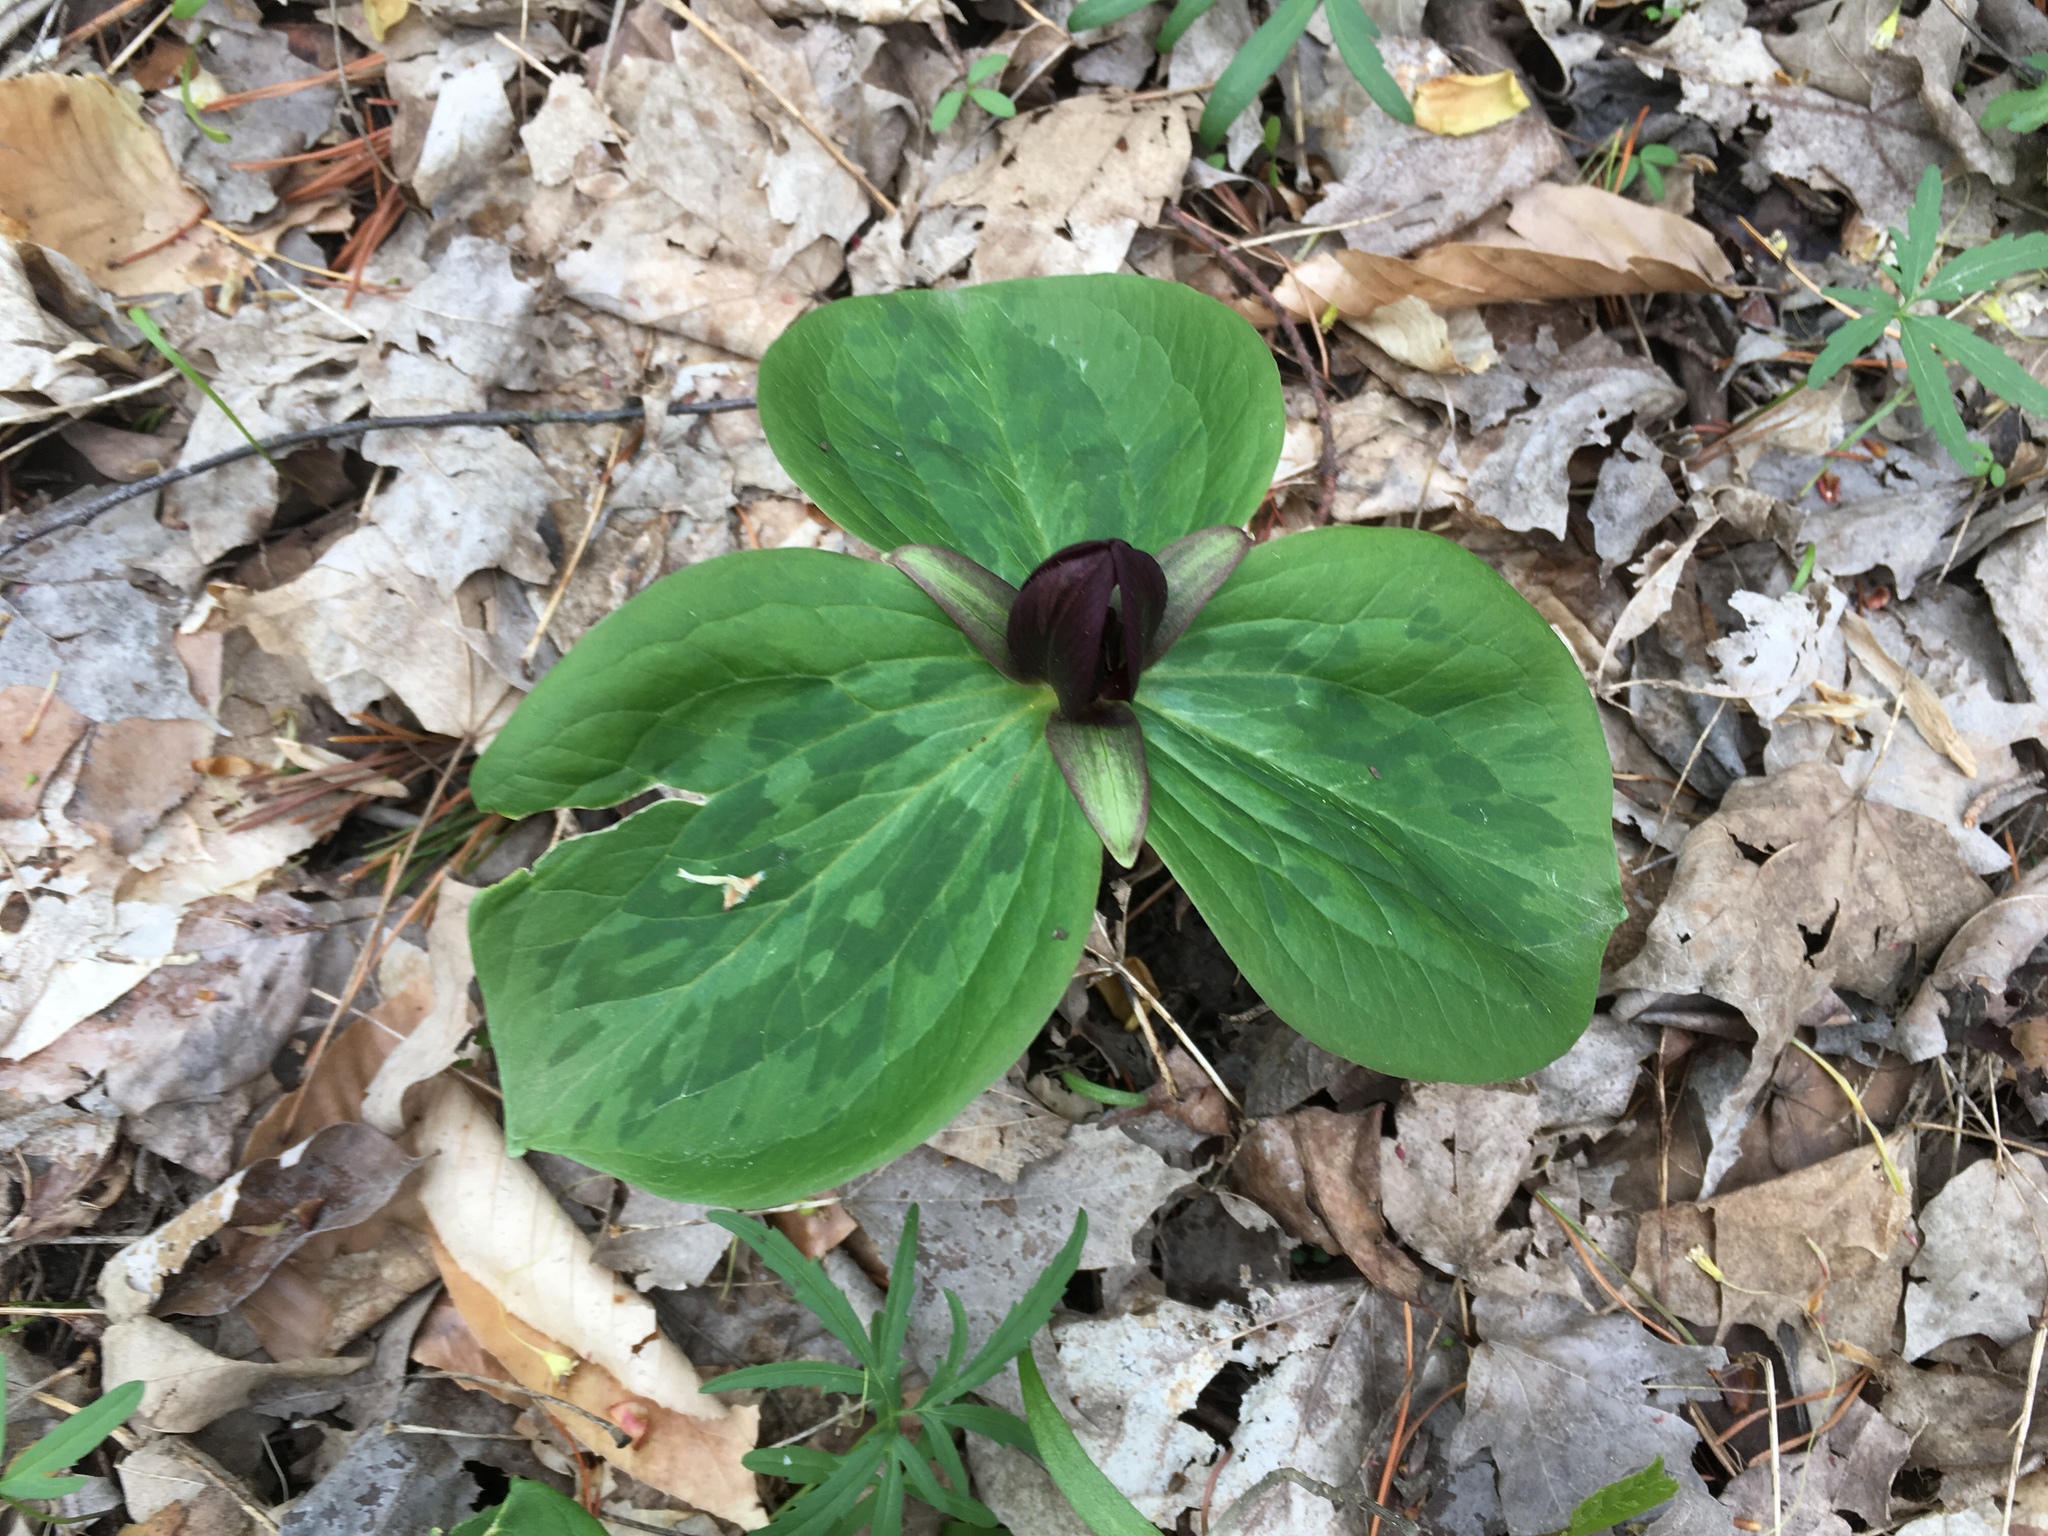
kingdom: Plantae
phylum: Tracheophyta
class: Liliopsida
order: Liliales
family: Melanthiaceae
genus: Trillium
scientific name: Trillium sessile
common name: Sessile trillium
